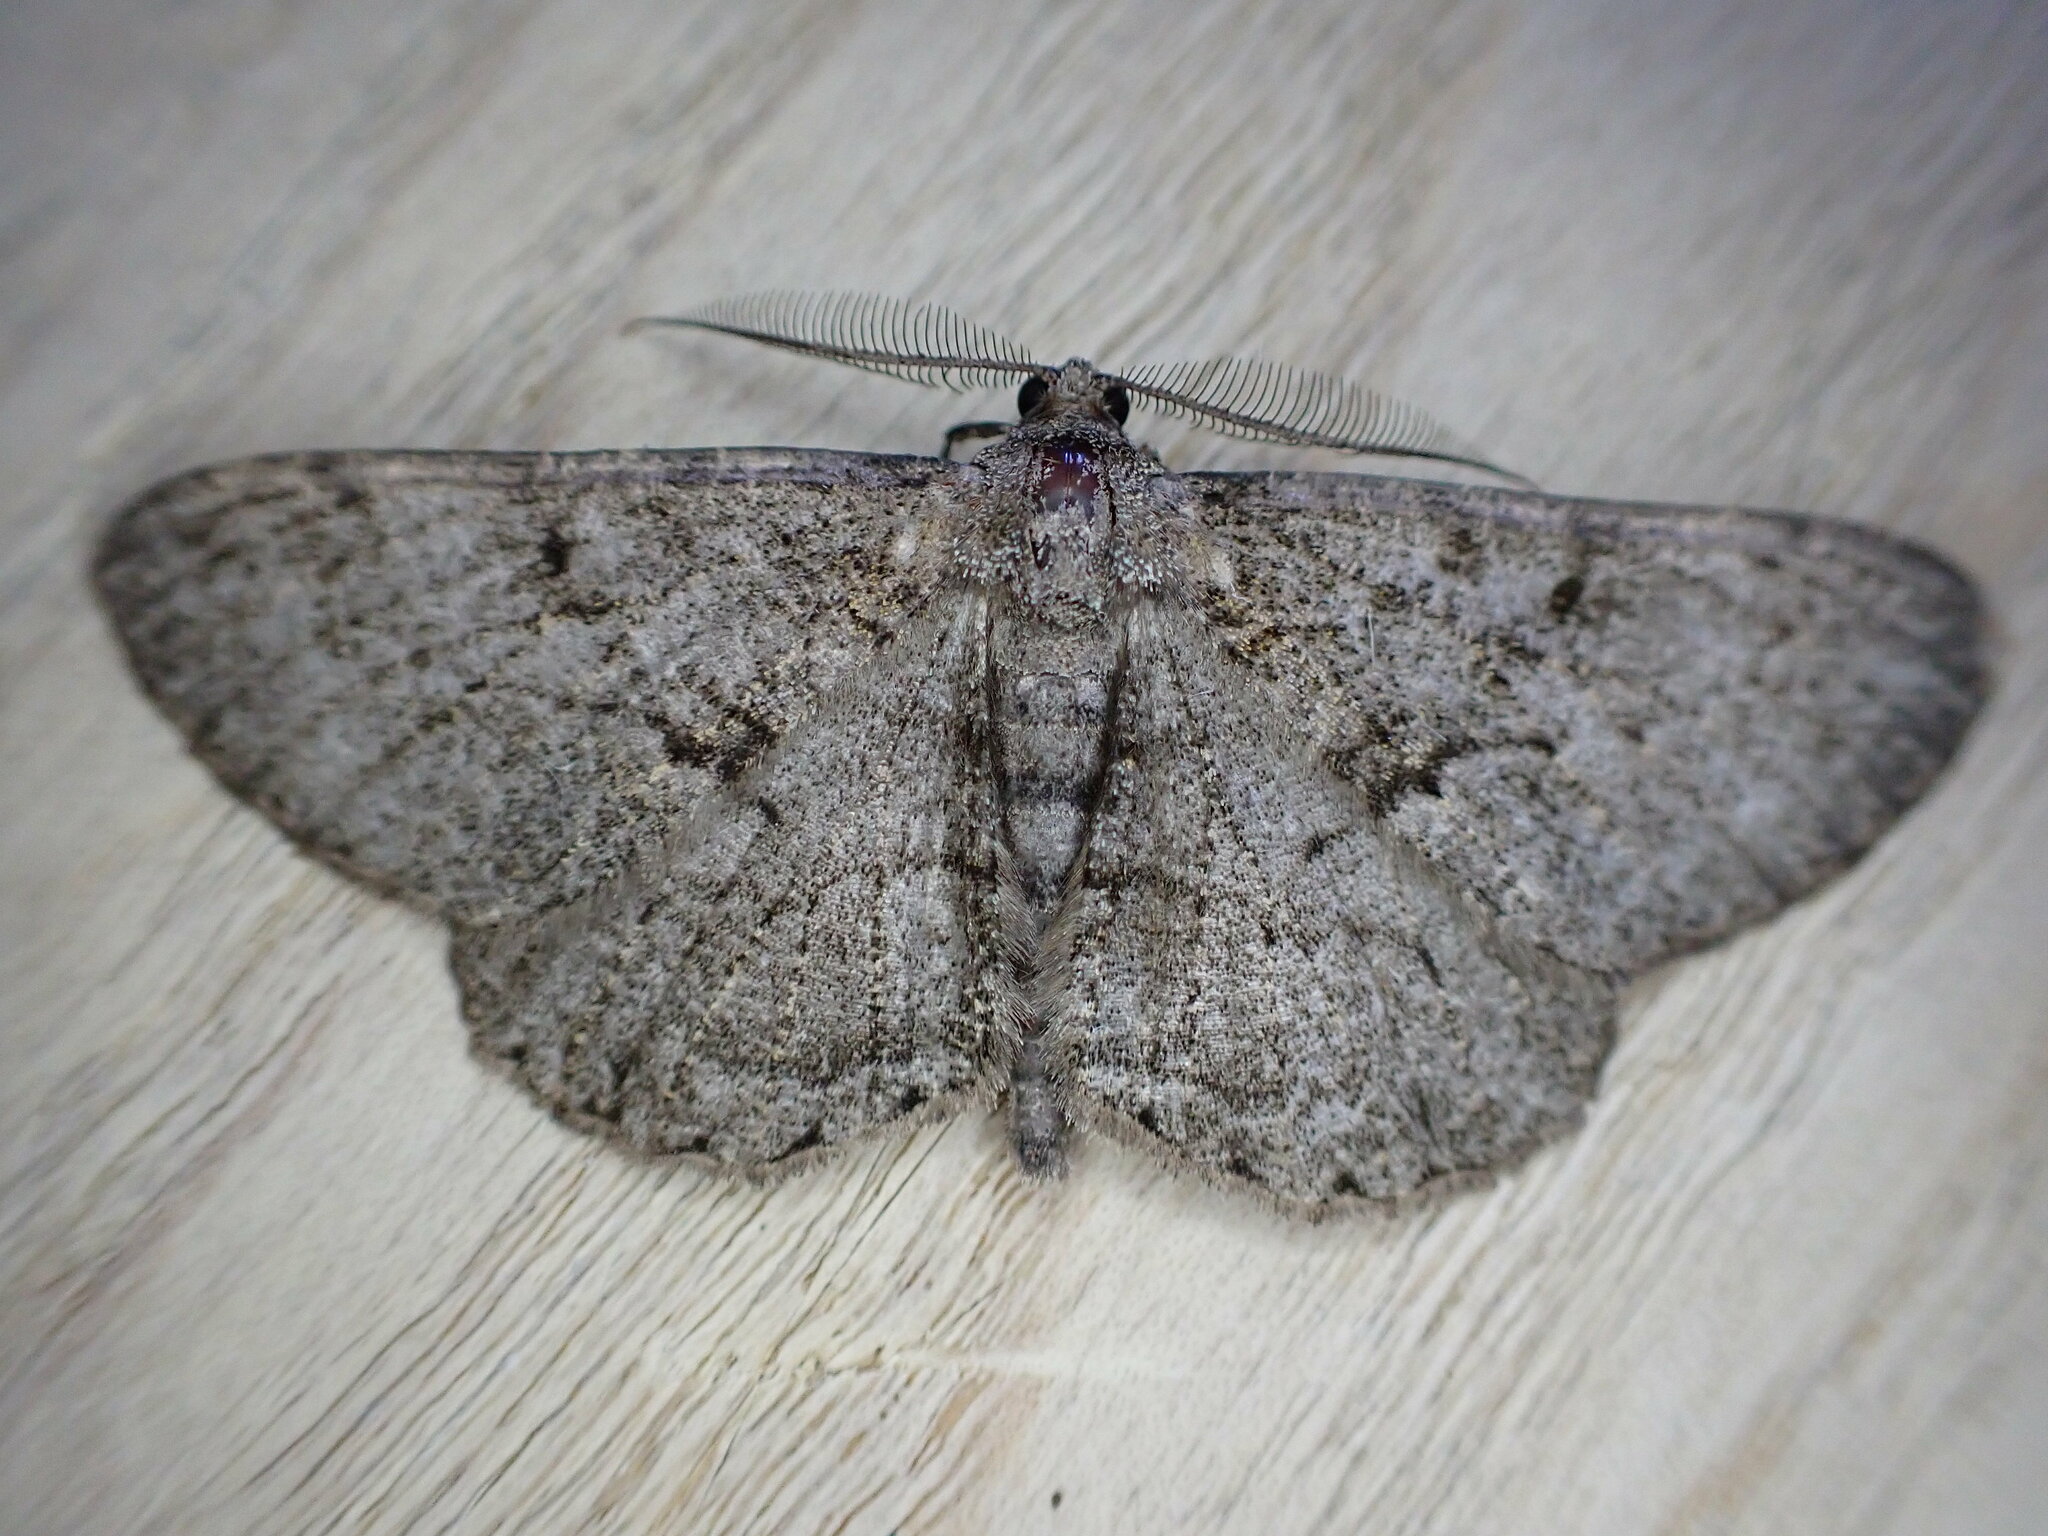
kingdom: Animalia
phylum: Arthropoda
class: Insecta
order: Lepidoptera
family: Geometridae
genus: Peribatodes
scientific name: Peribatodes rhomboidaria
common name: Willow beauty
